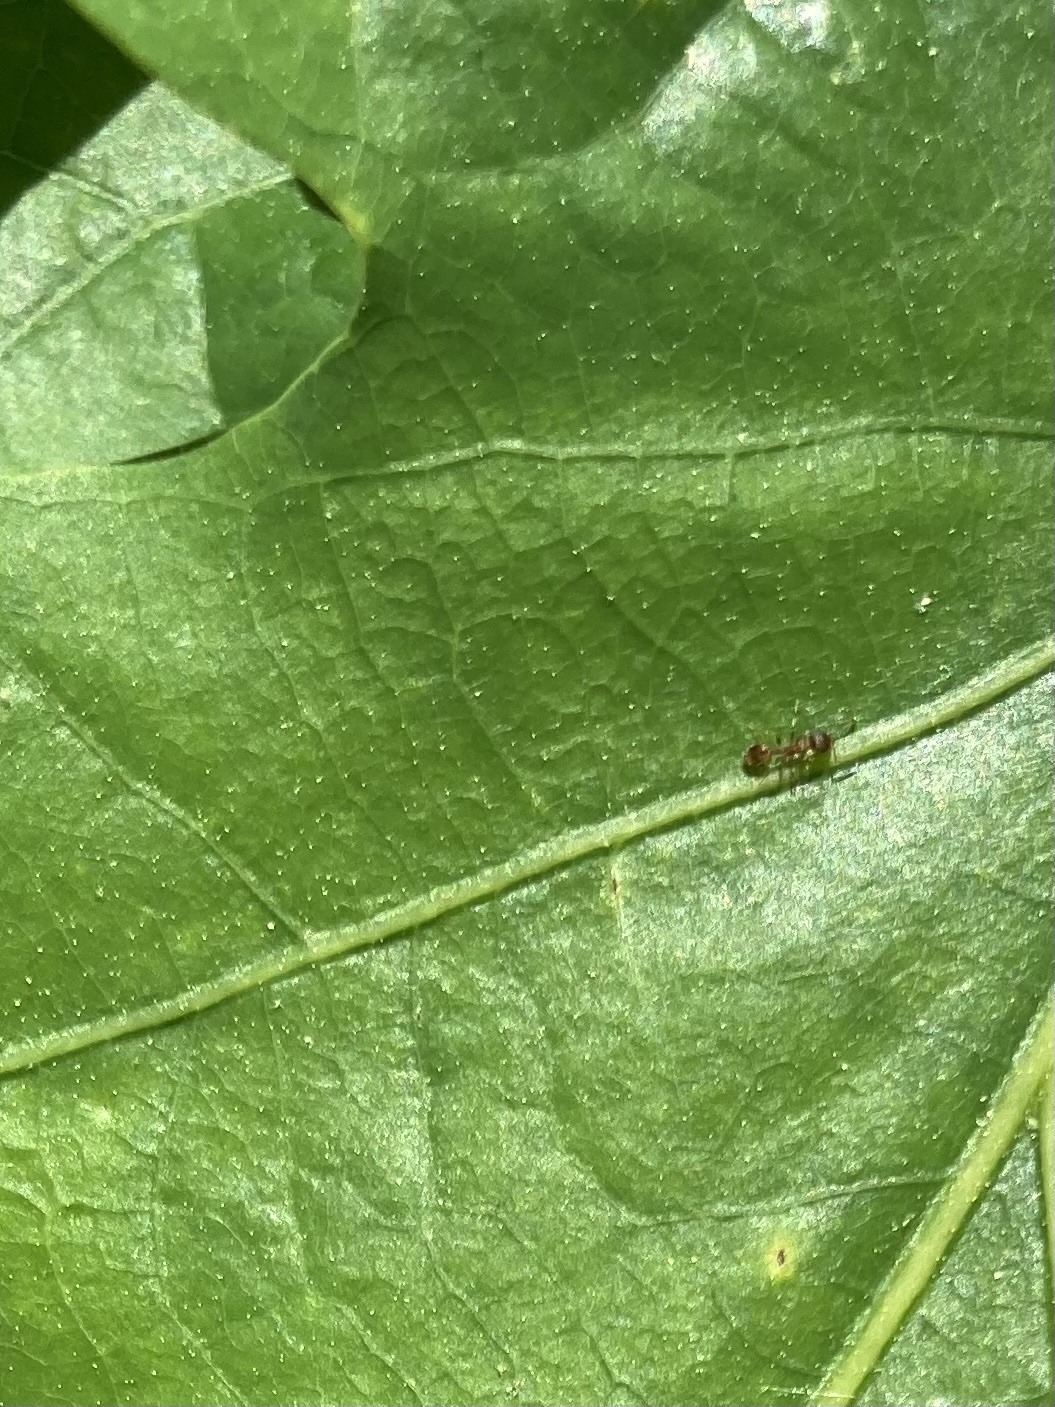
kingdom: Animalia
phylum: Arthropoda
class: Insecta
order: Hymenoptera
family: Formicidae
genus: Temnothorax
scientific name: Temnothorax curvispinosus
